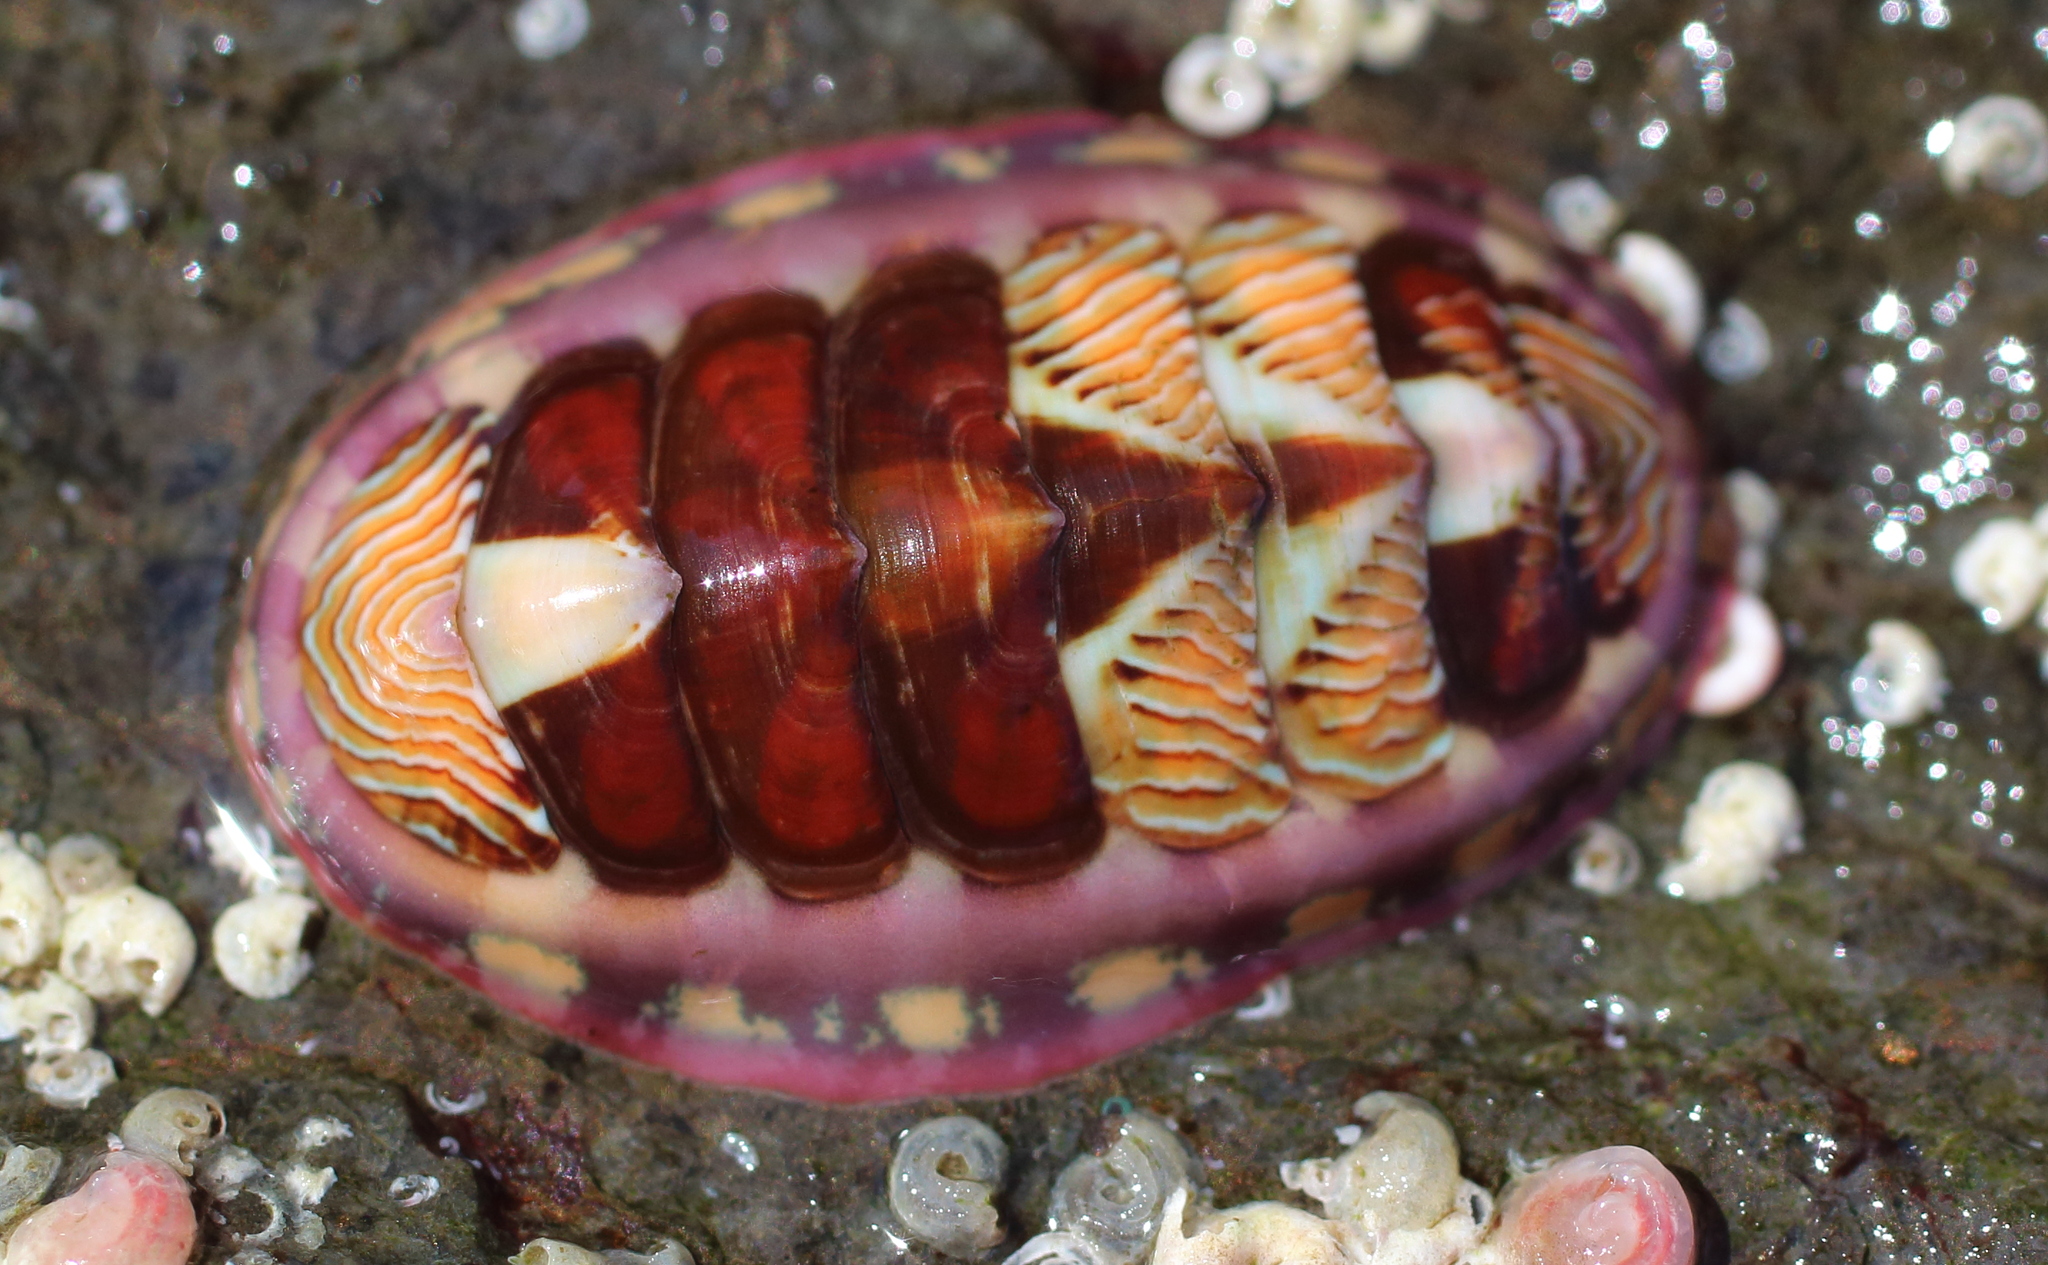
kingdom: Animalia
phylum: Mollusca
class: Polyplacophora
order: Chitonida
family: Tonicellidae
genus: Tonicella
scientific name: Tonicella lineata
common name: Lined chiton
